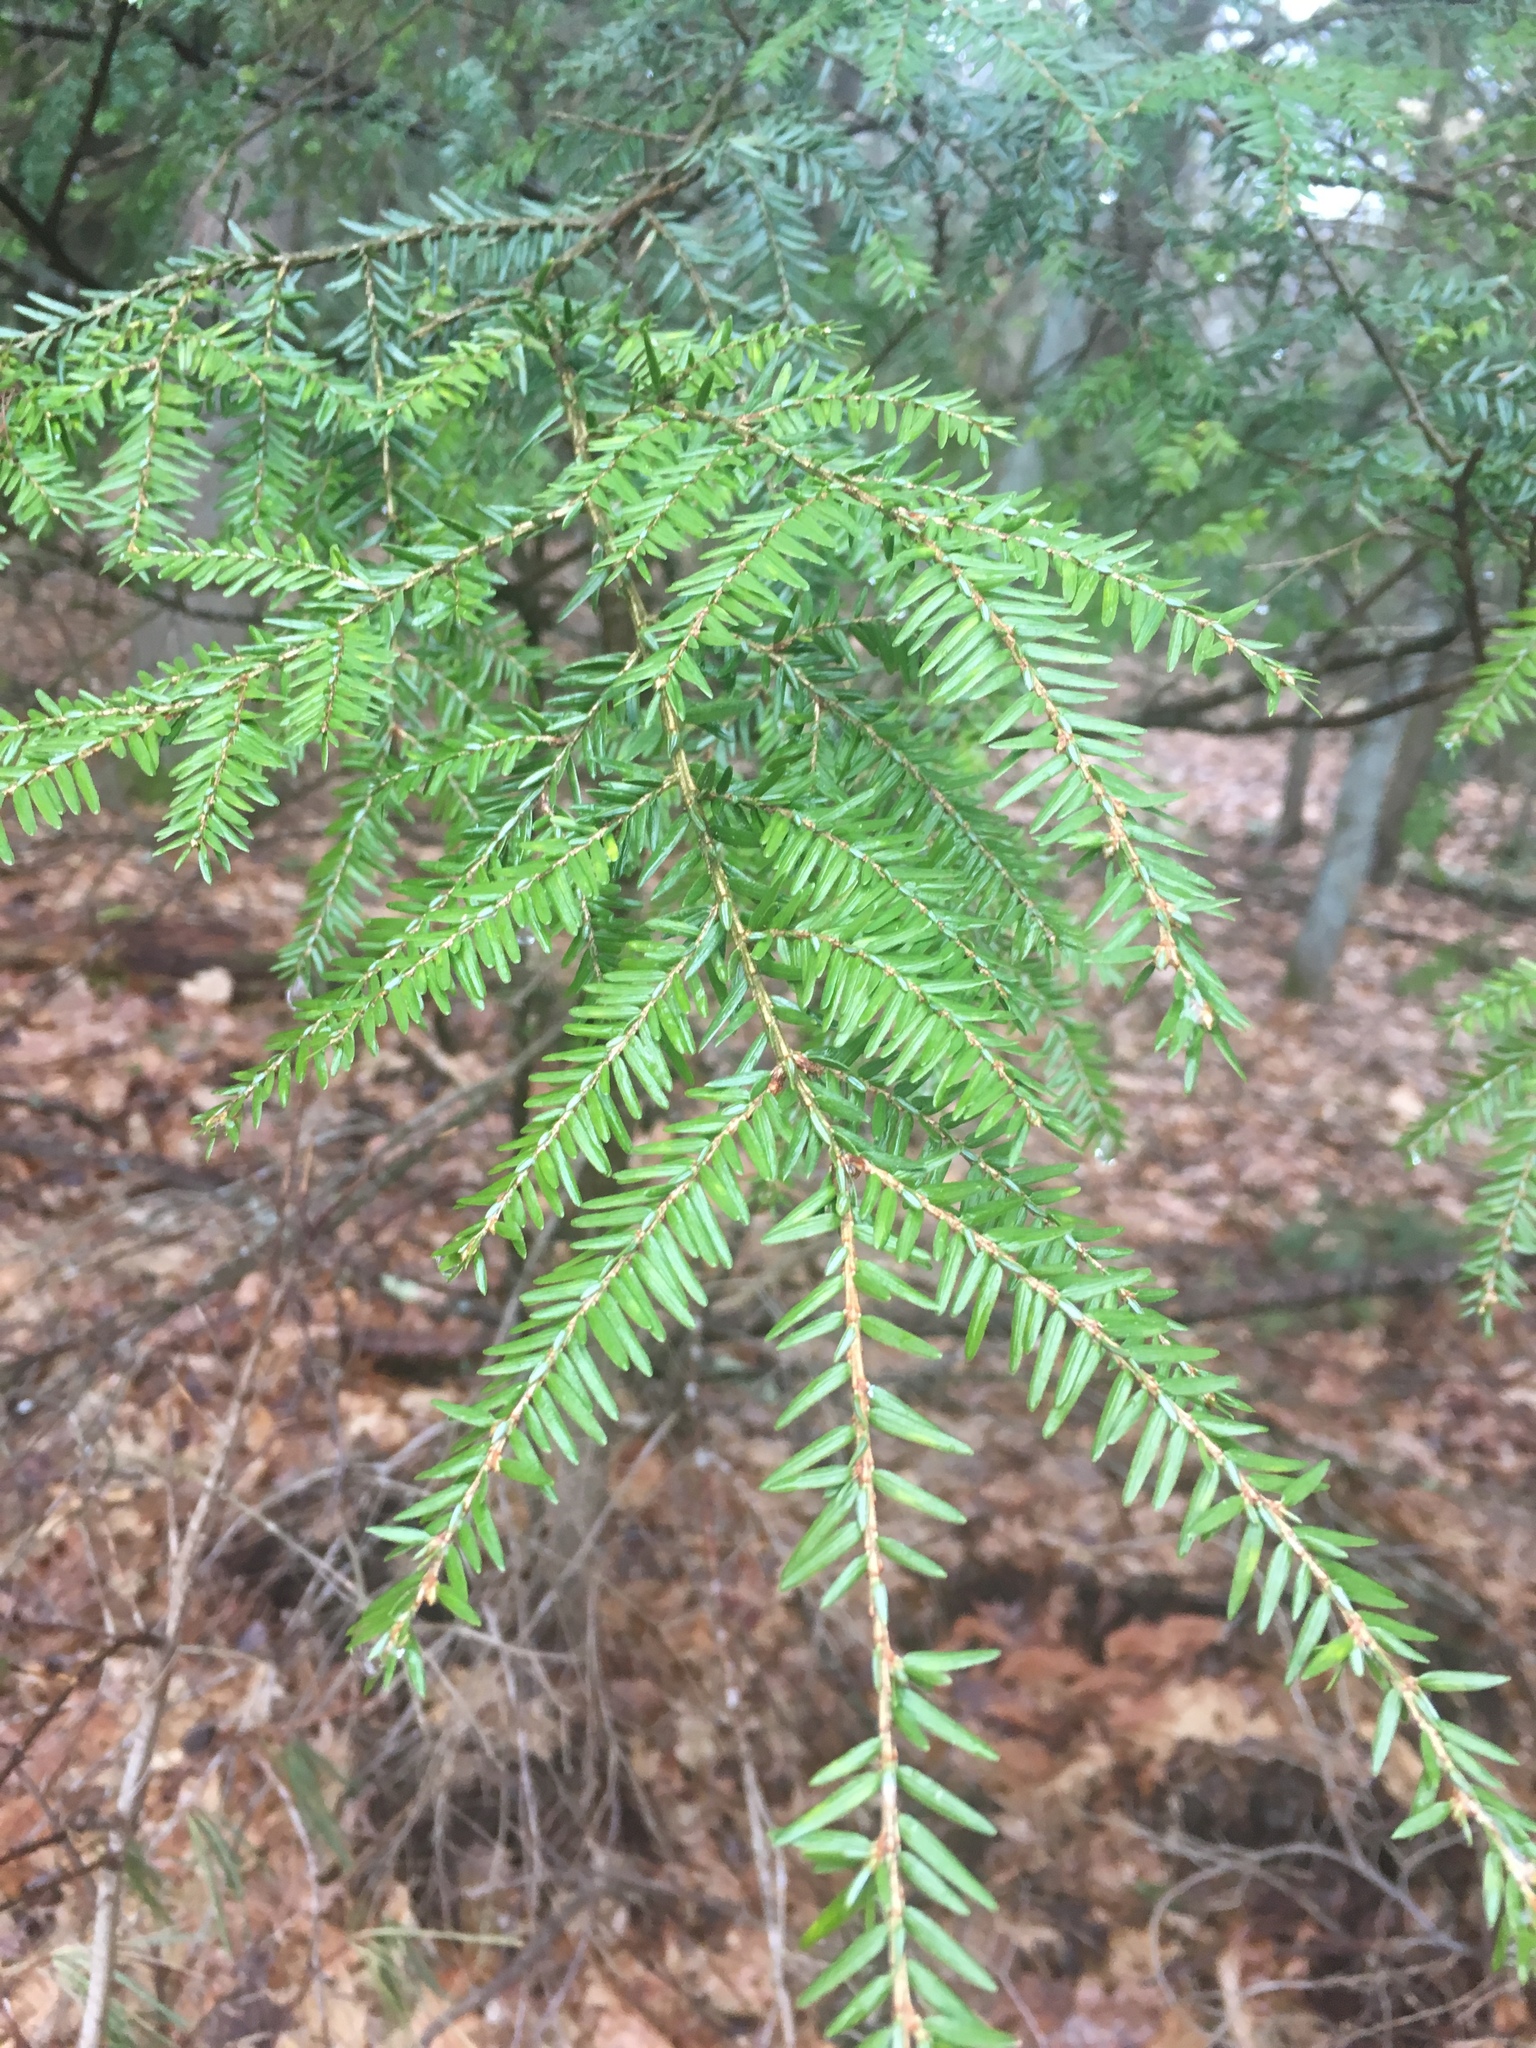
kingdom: Plantae
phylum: Tracheophyta
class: Pinopsida
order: Pinales
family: Pinaceae
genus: Tsuga
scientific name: Tsuga canadensis
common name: Eastern hemlock
